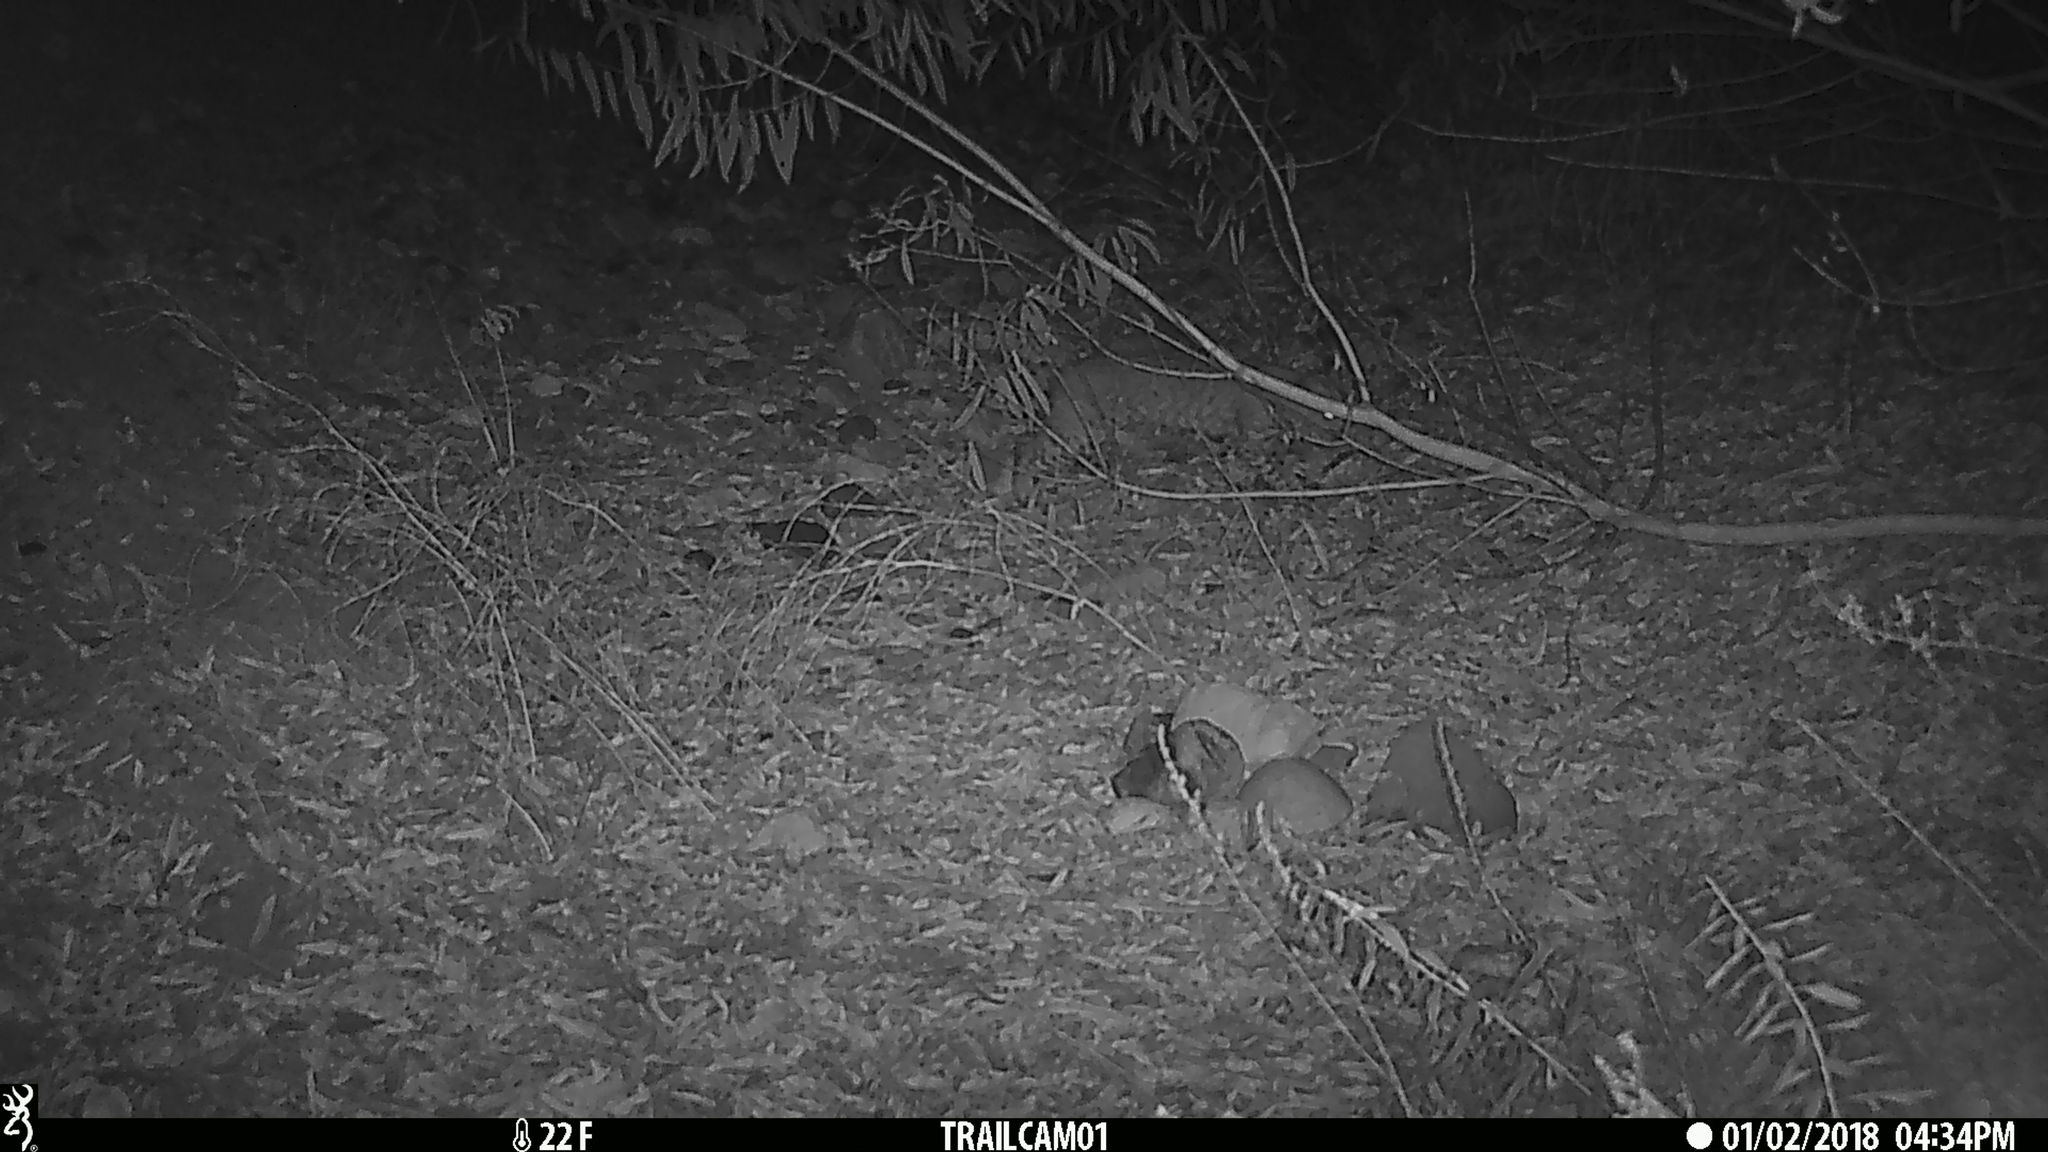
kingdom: Animalia
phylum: Chordata
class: Mammalia
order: Carnivora
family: Felidae
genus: Lynx
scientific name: Lynx rufus
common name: Bobcat
